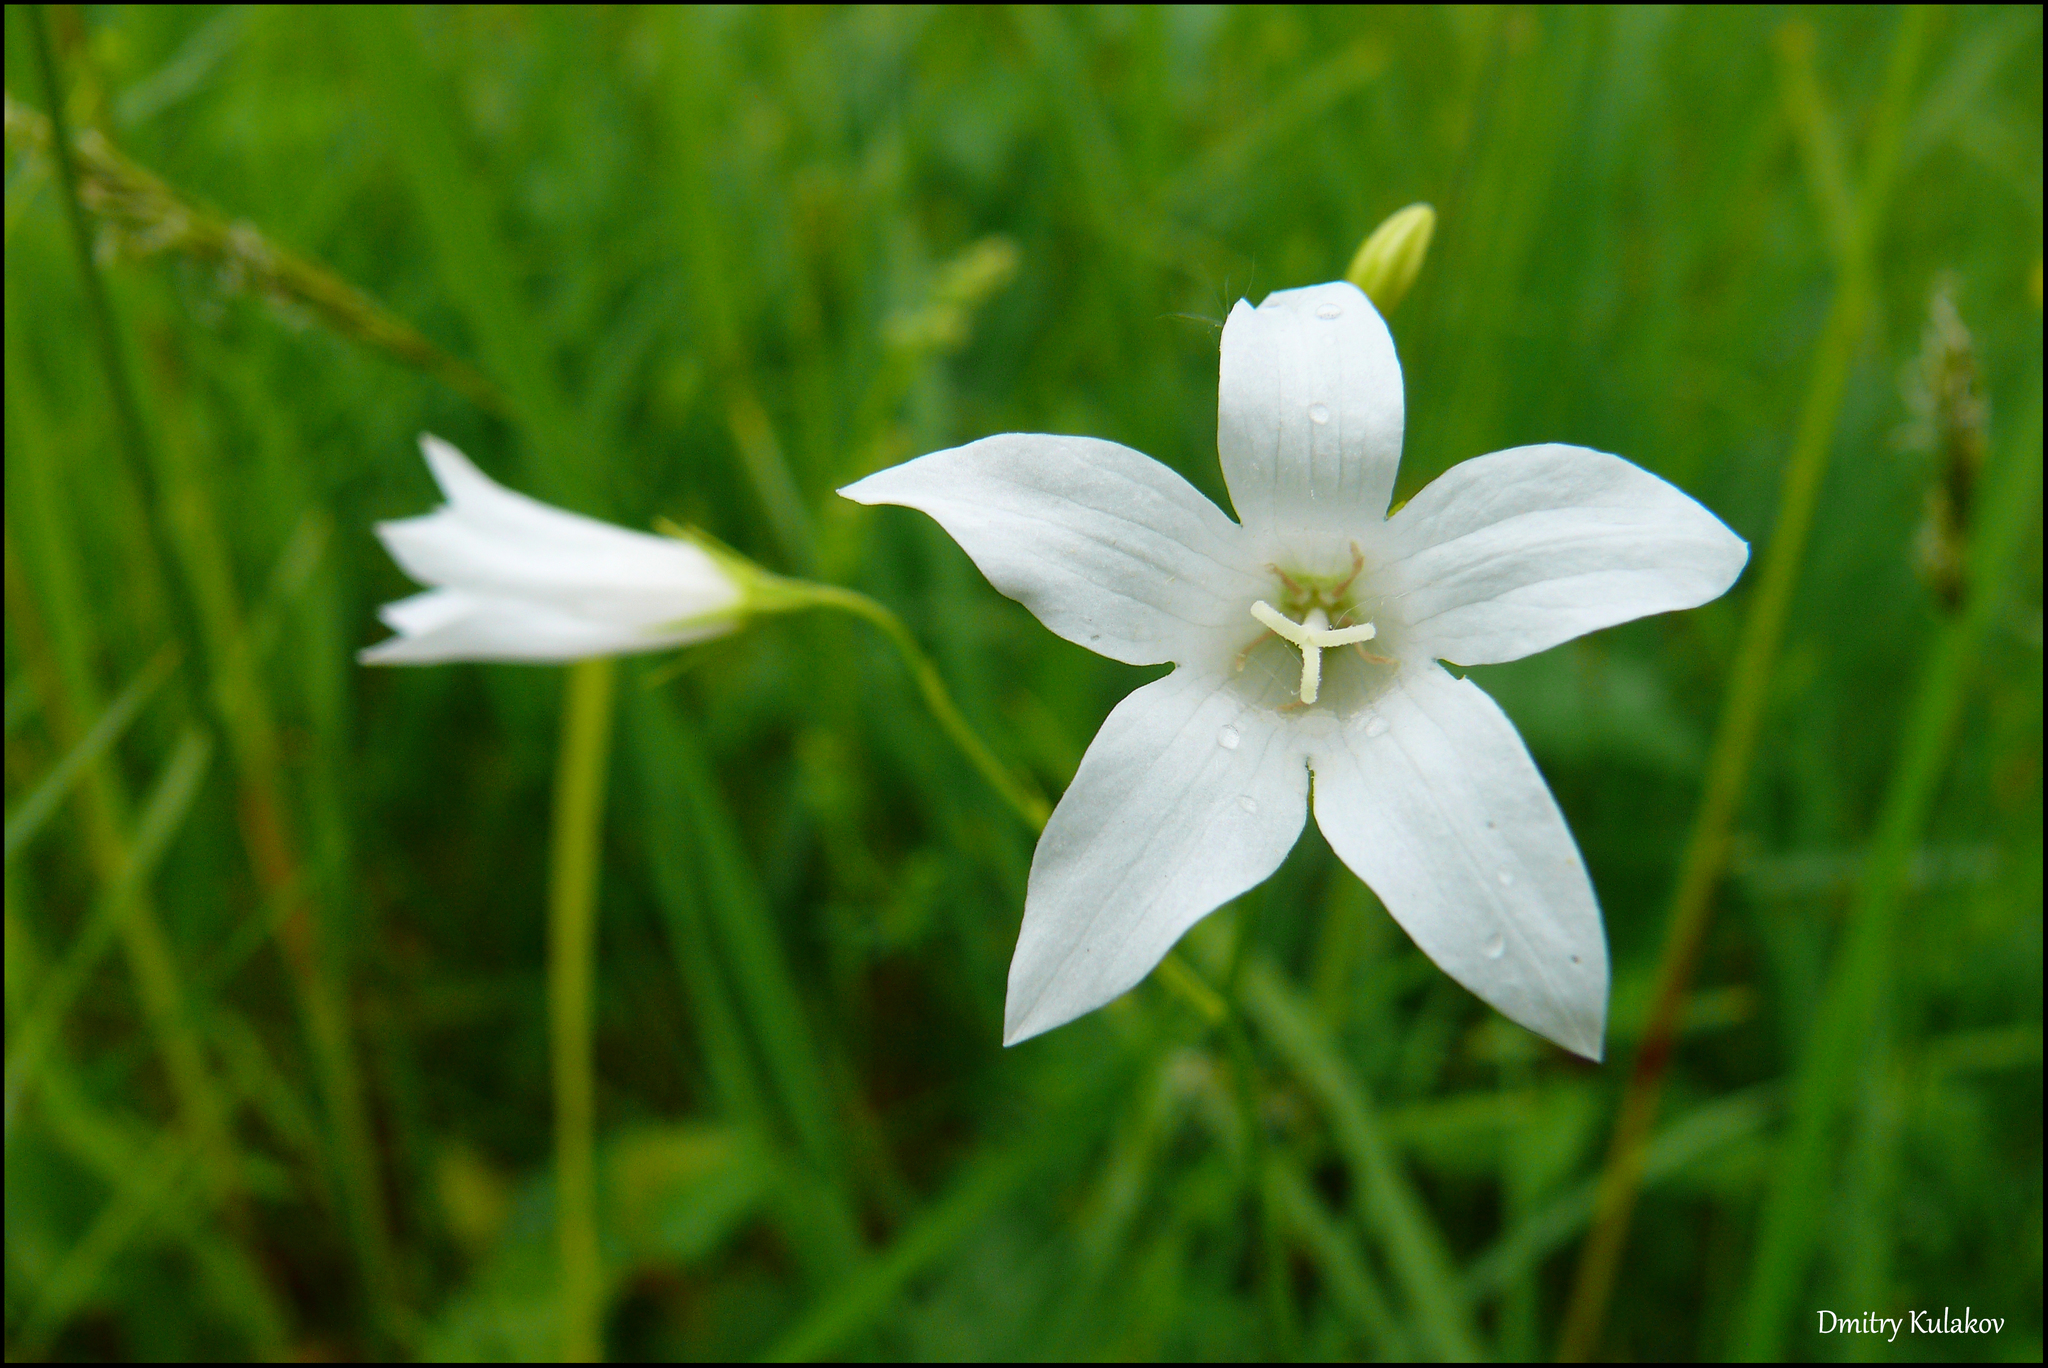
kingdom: Plantae
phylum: Tracheophyta
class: Magnoliopsida
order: Asterales
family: Campanulaceae
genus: Campanula
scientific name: Campanula patula
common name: Spreading bellflower
